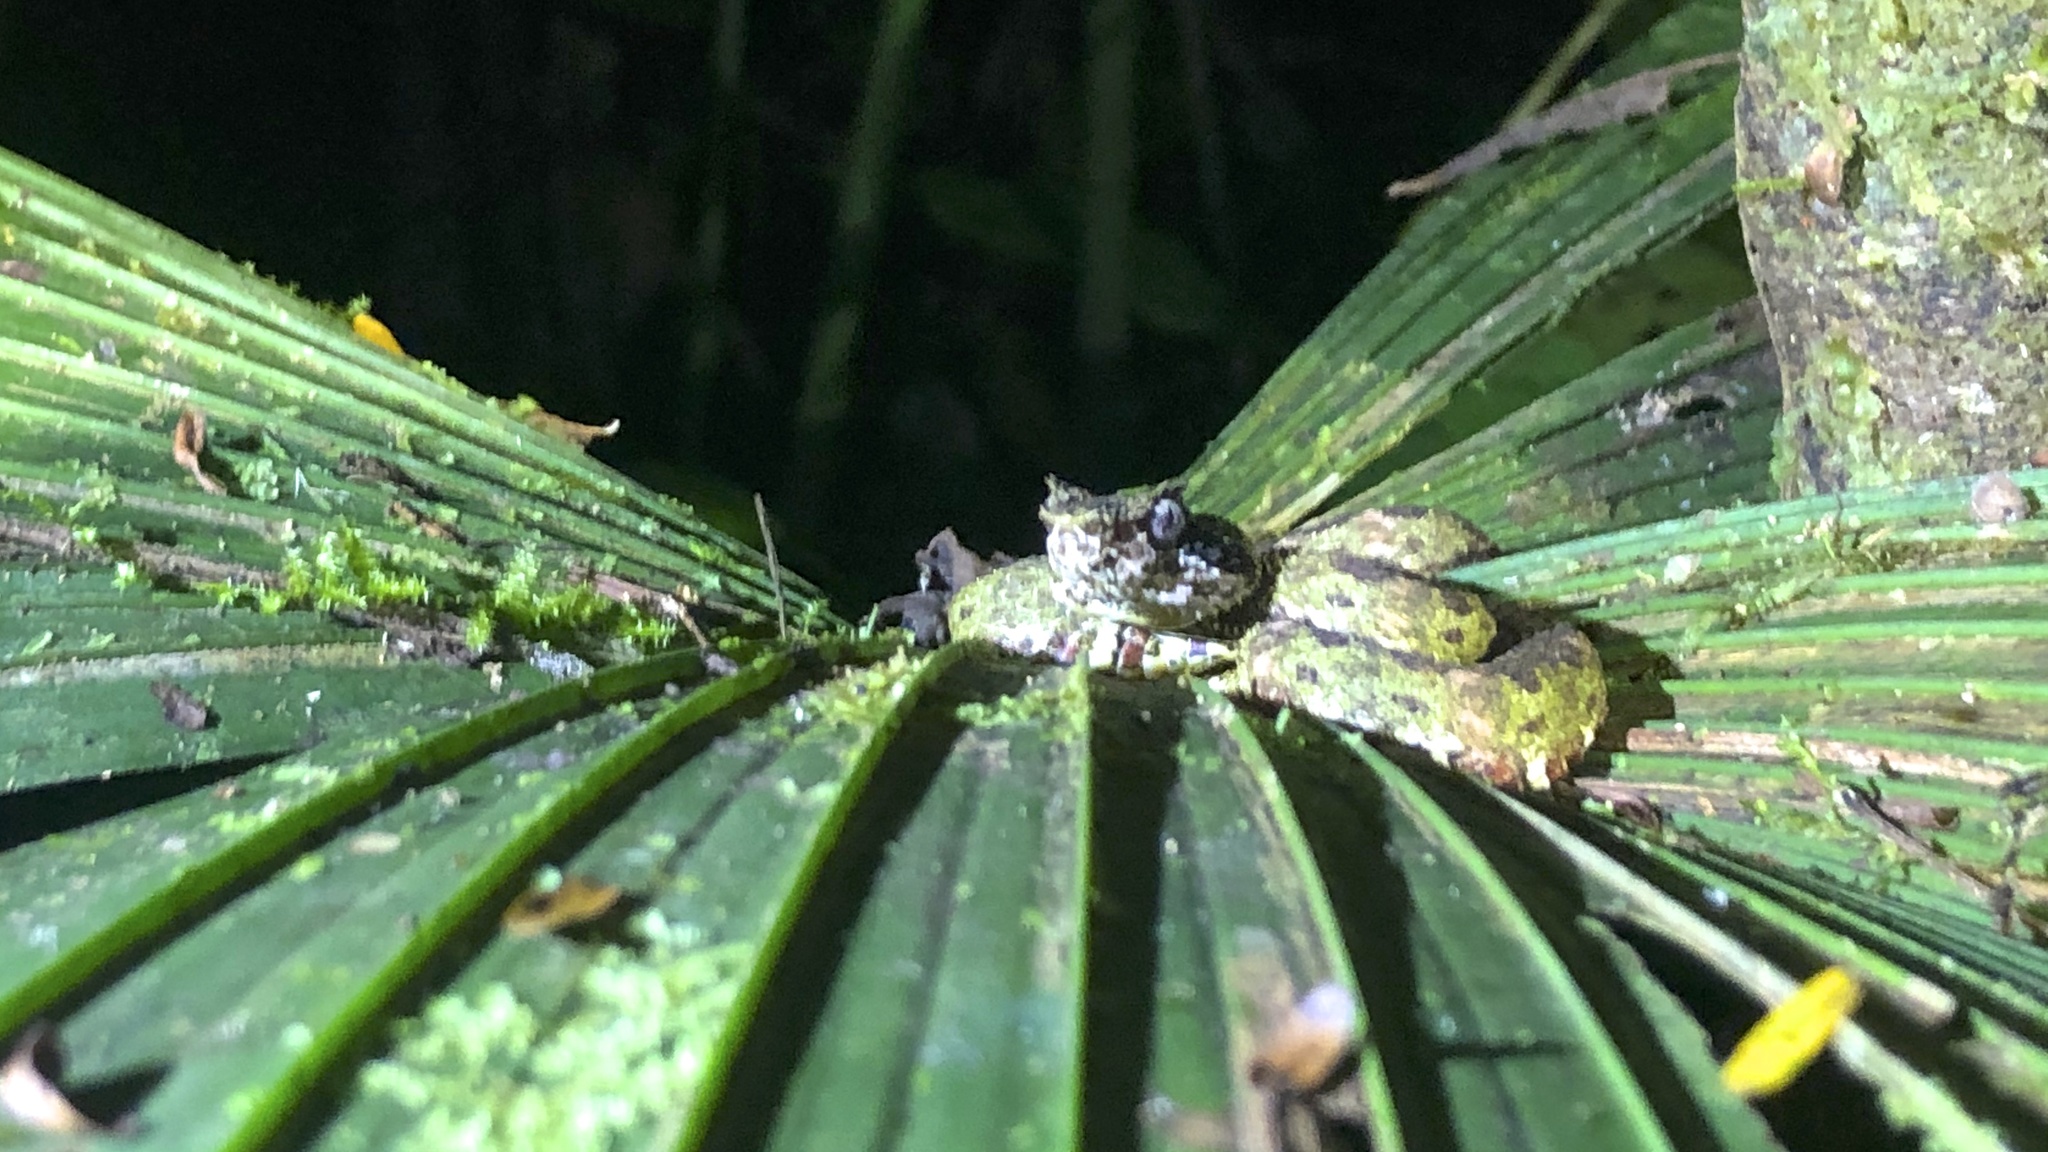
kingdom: Animalia
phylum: Chordata
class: Squamata
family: Viperidae
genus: Bothriechis
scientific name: Bothriechis schlegelii
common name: Eyelash viper
